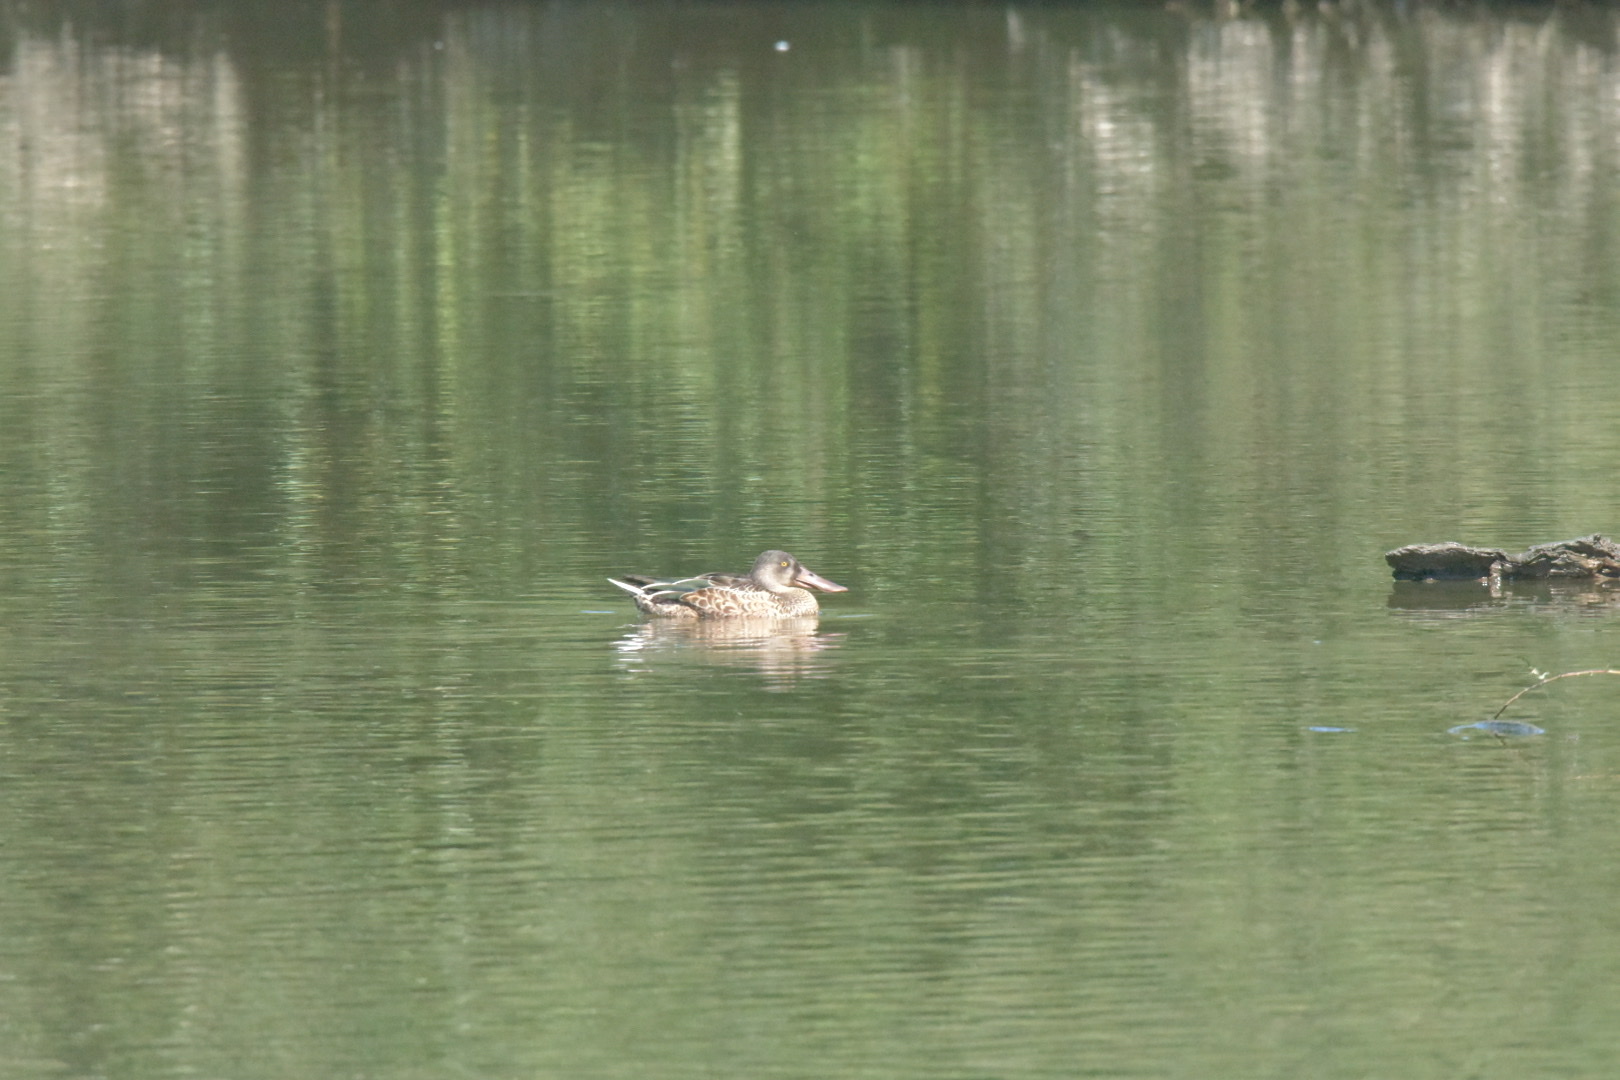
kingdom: Animalia
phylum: Chordata
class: Aves
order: Anseriformes
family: Anatidae
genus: Spatula
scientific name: Spatula clypeata
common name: Northern shoveler
